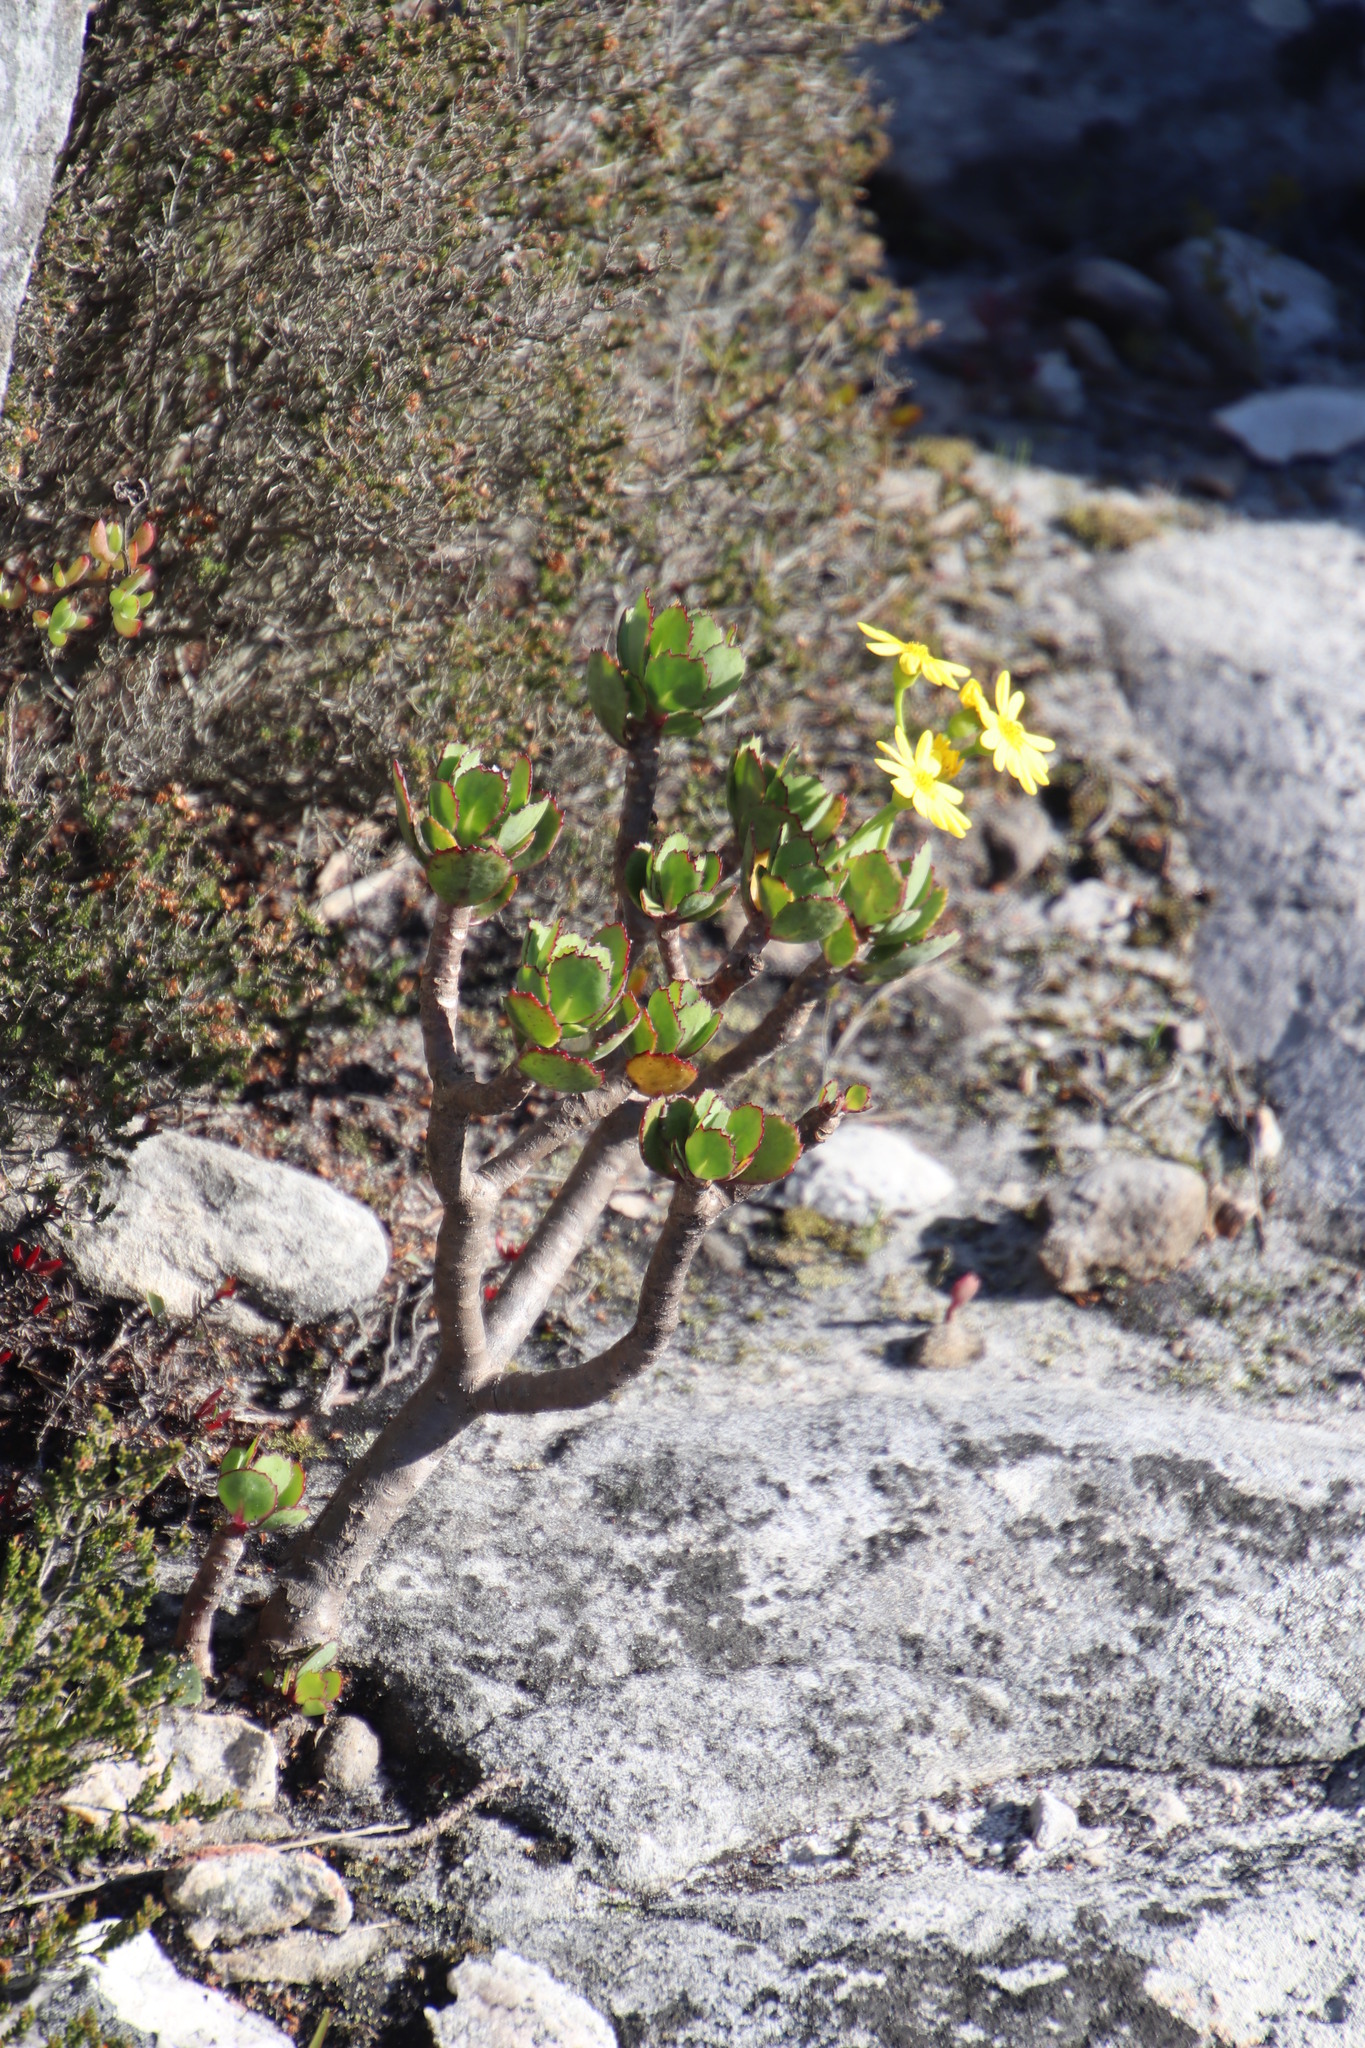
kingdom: Plantae
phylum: Tracheophyta
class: Magnoliopsida
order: Asterales
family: Asteraceae
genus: Othonna
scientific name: Othonna dentata
